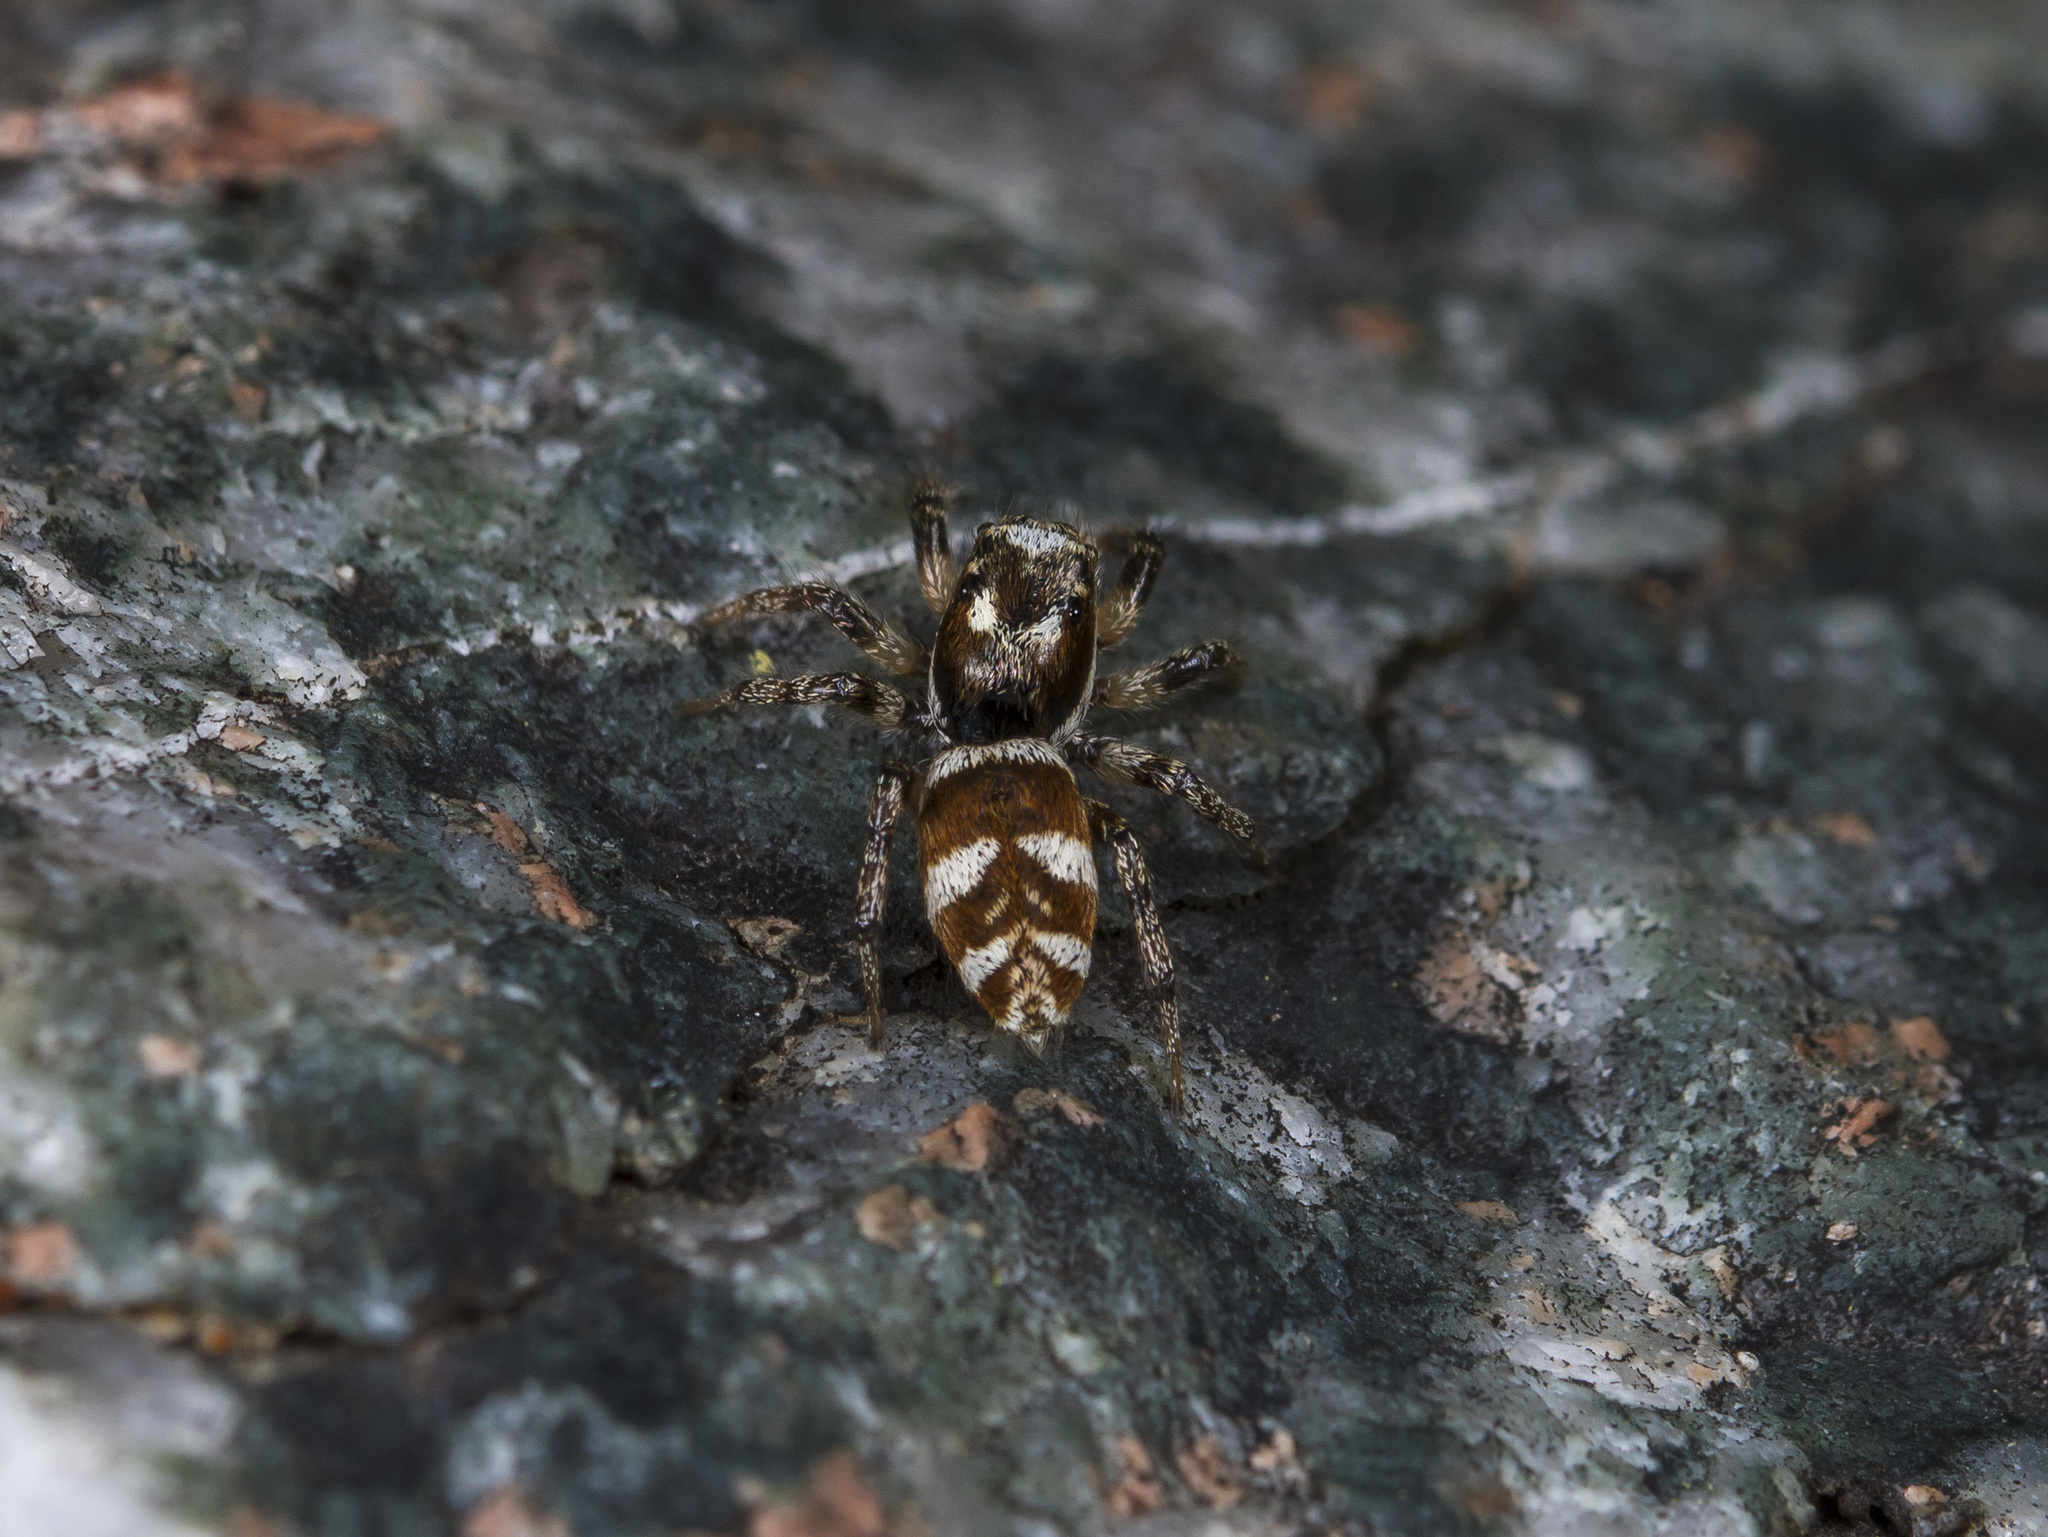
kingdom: Animalia
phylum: Arthropoda
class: Arachnida
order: Araneae
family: Salticidae
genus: Salticus
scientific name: Salticus scenicus
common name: Zebra jumper
